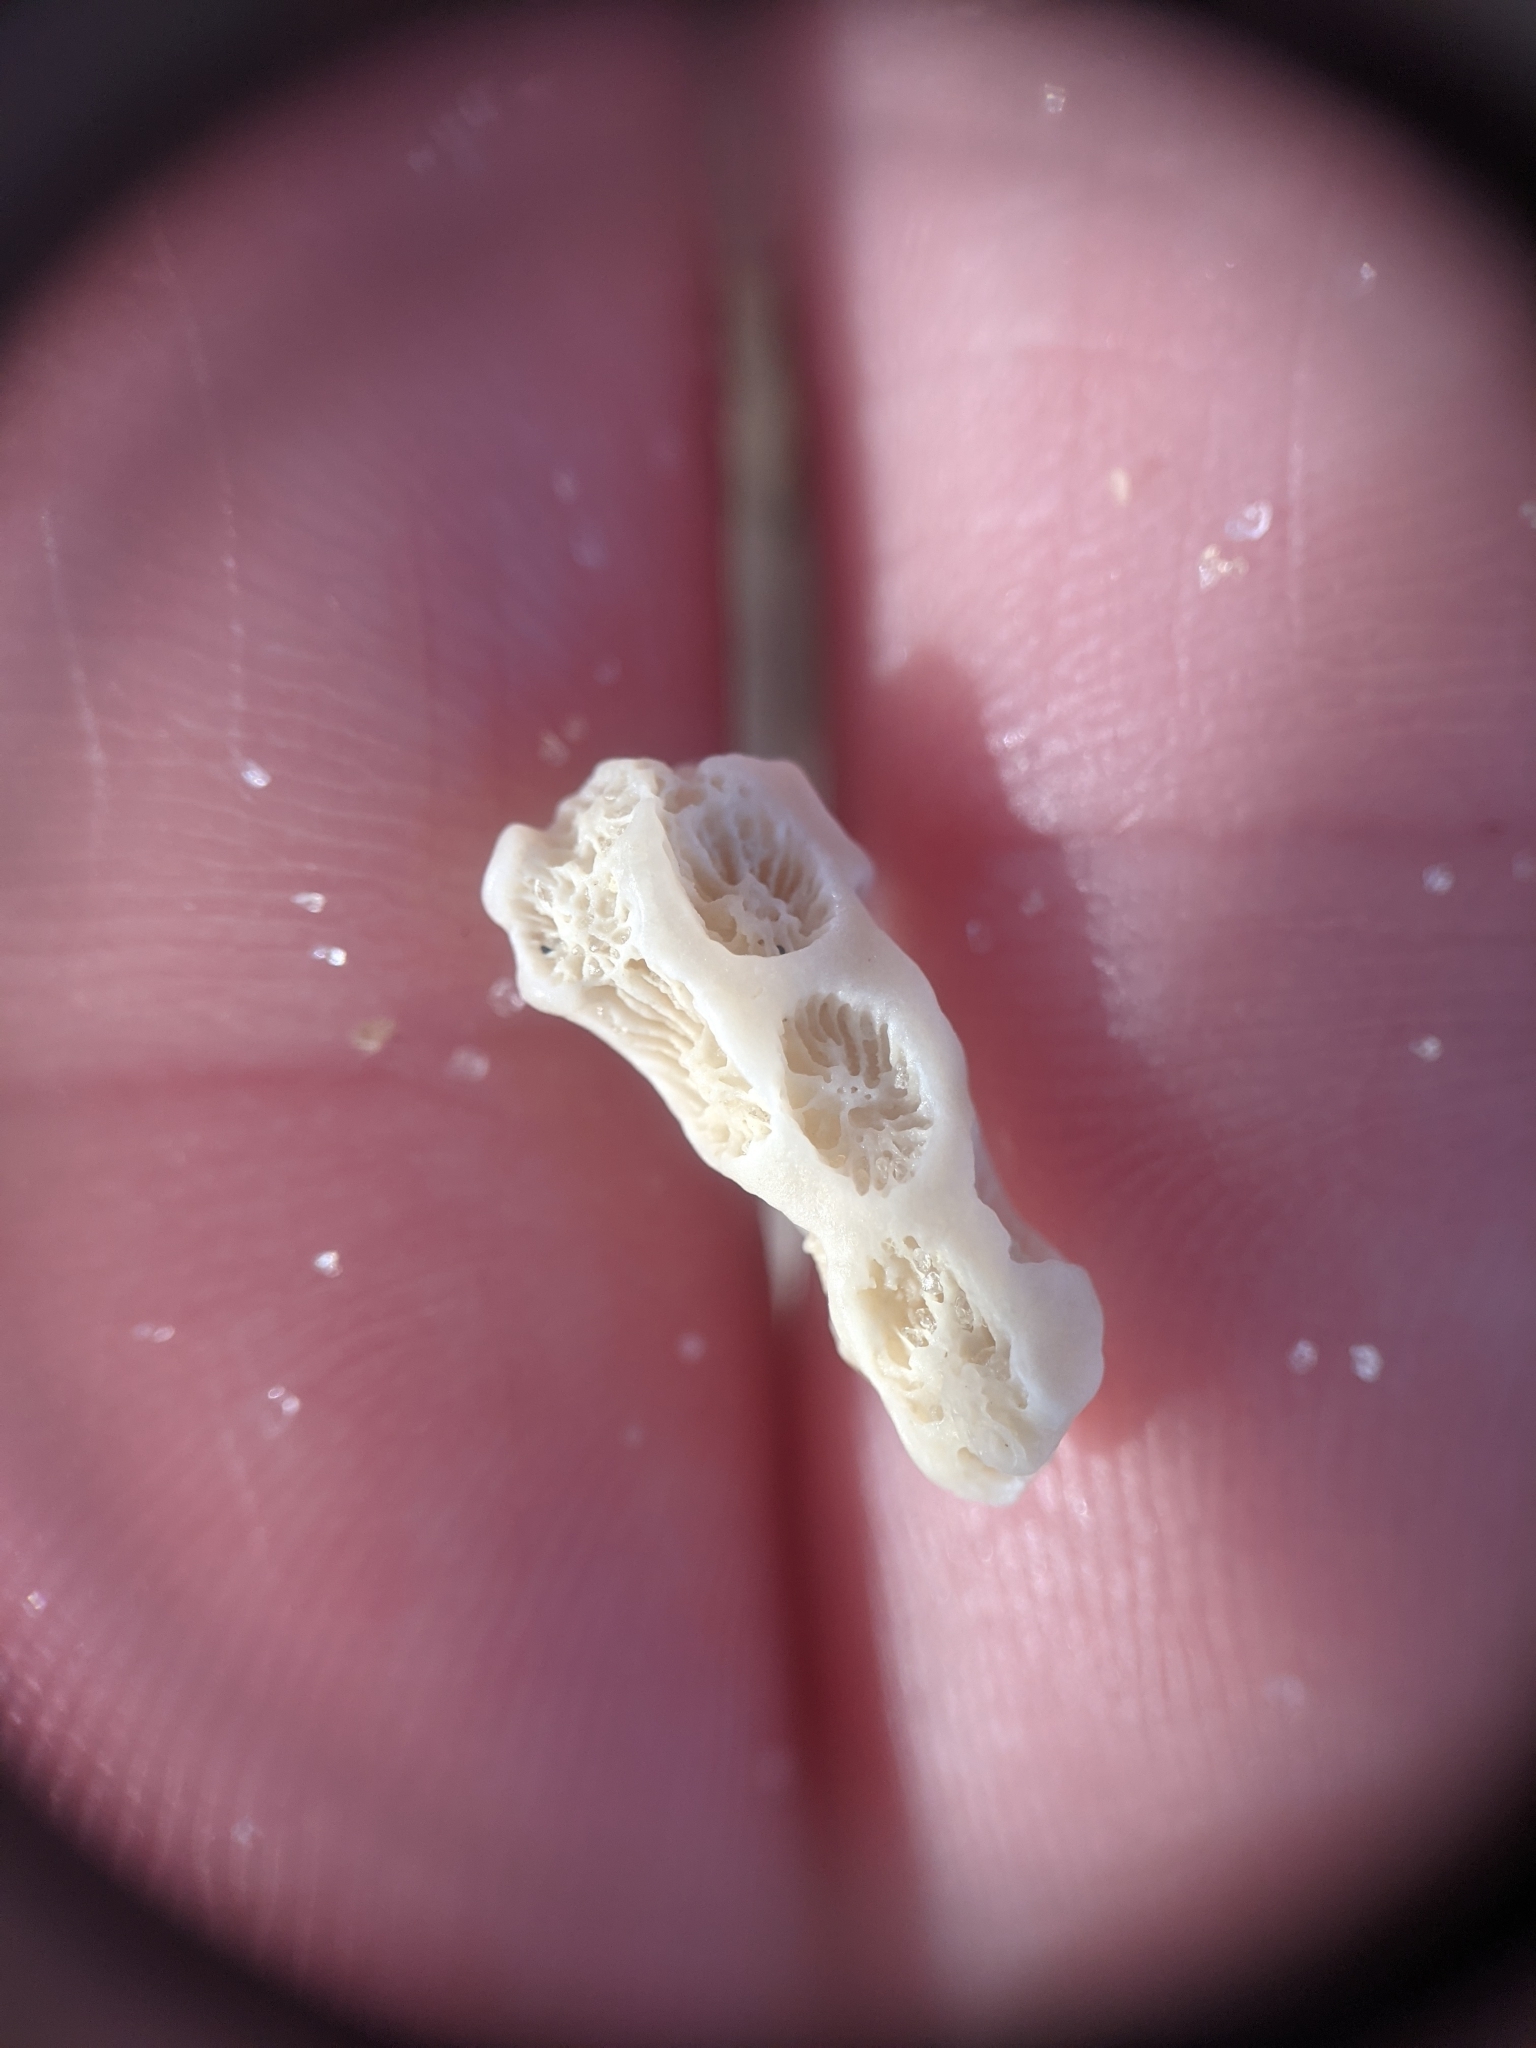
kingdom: Animalia
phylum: Cnidaria
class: Anthozoa
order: Scleractinia
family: Astrangiidae
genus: Astrangia
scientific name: Astrangia poculata
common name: Northern star coral
